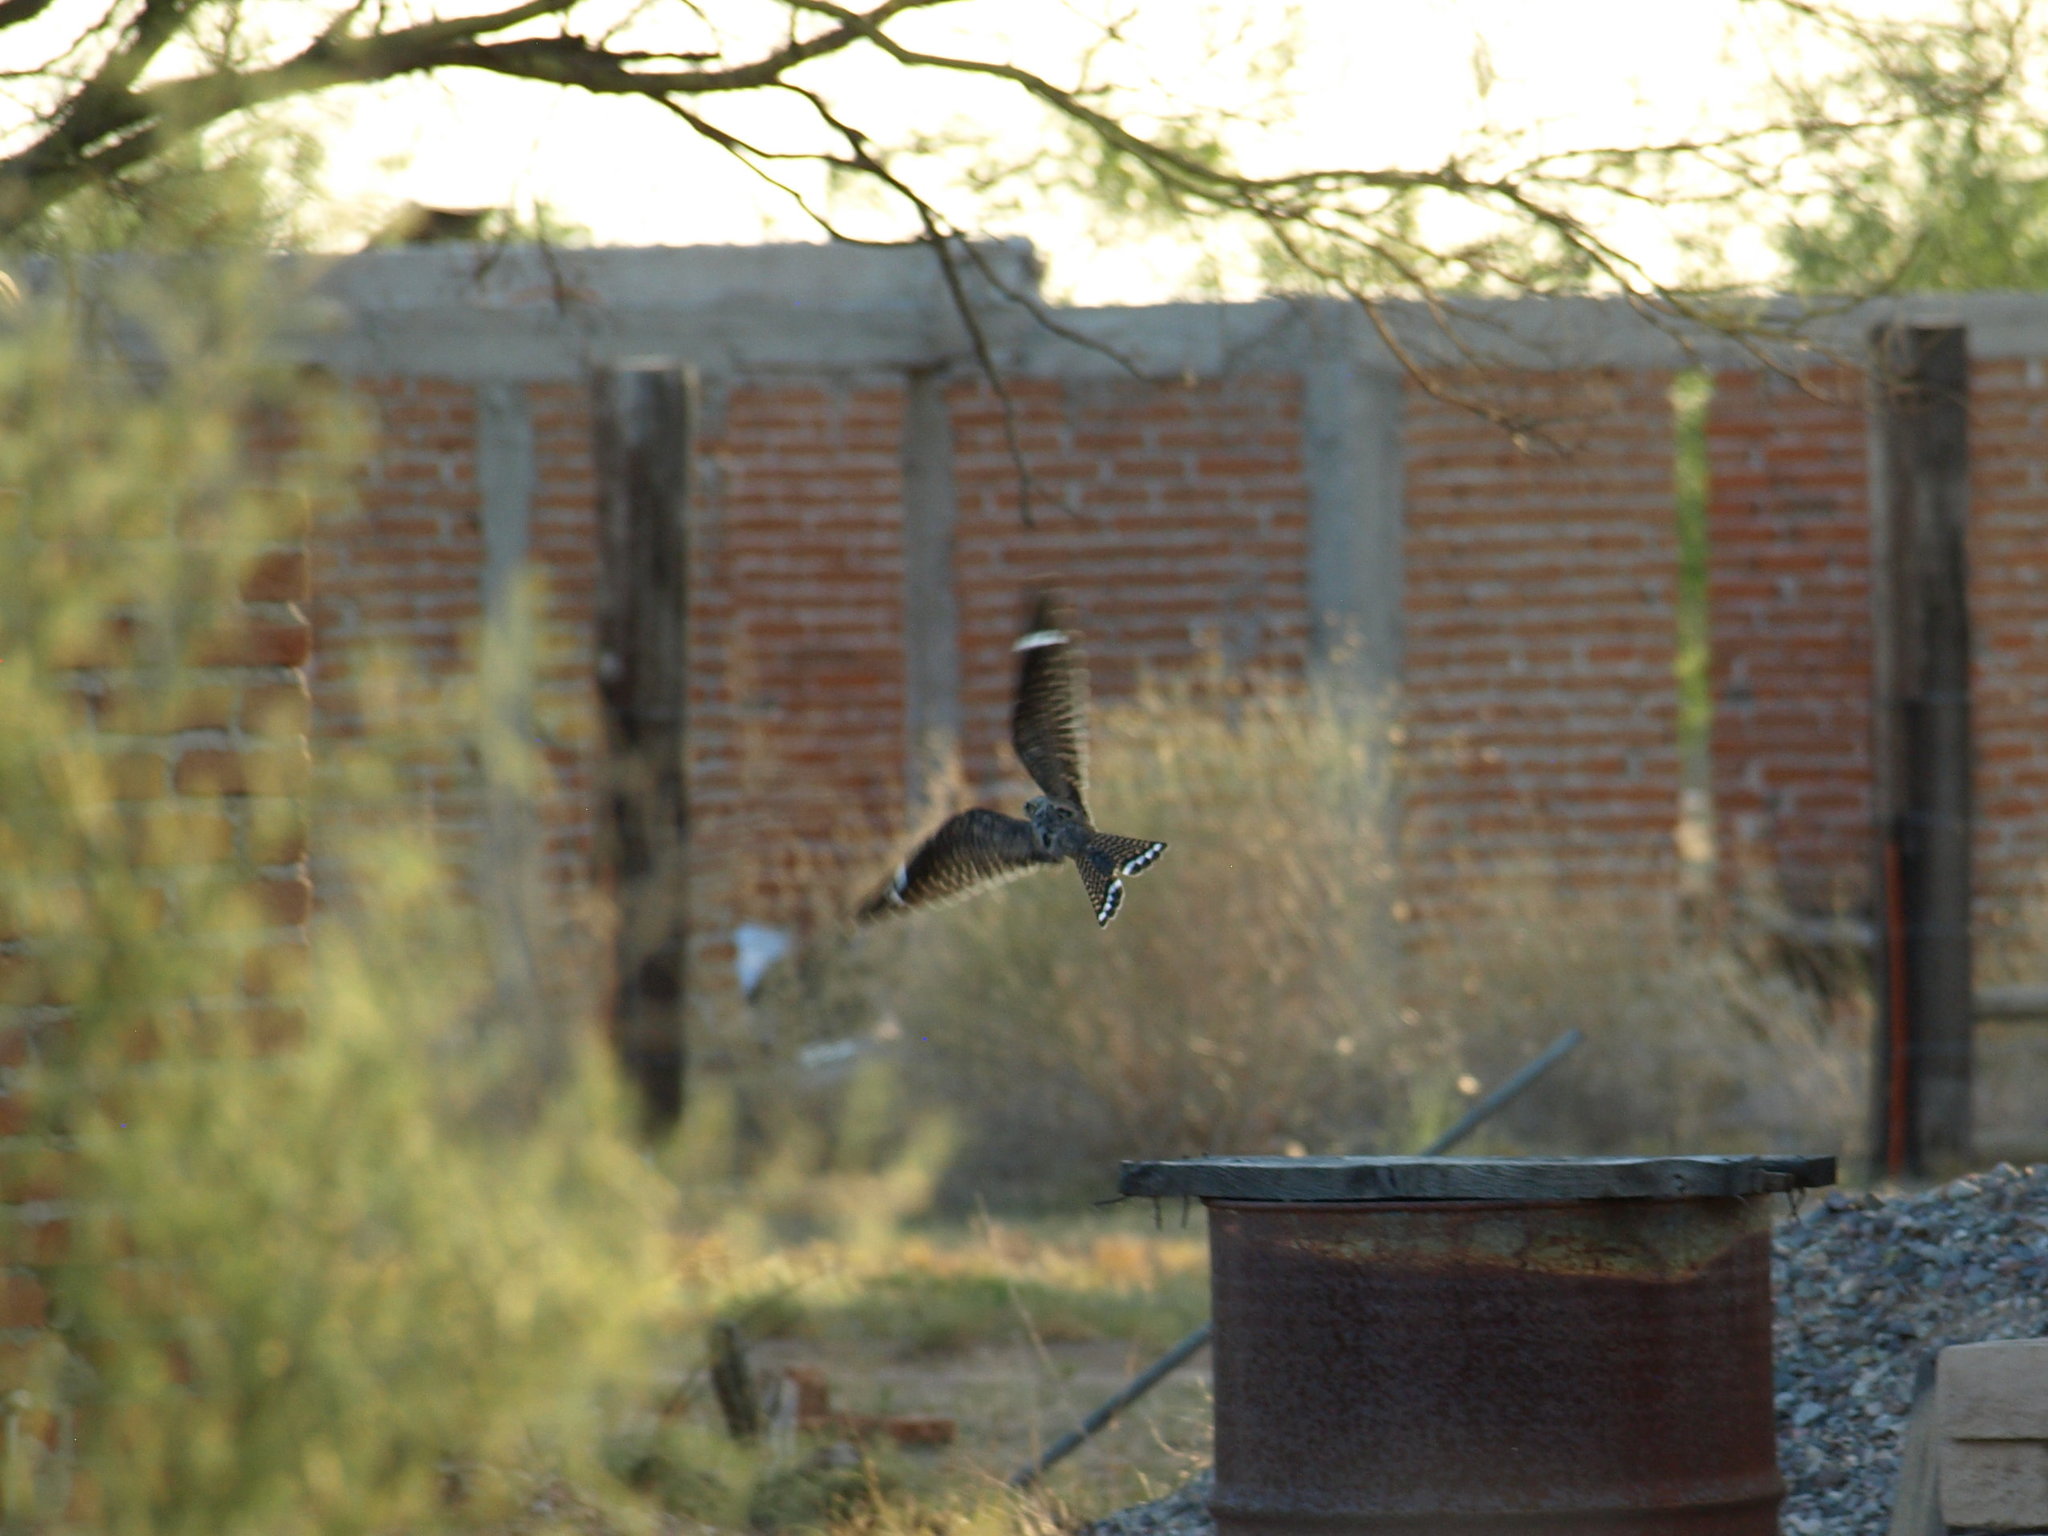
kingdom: Animalia
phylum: Chordata
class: Aves
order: Caprimulgiformes
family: Caprimulgidae
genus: Chordeiles
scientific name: Chordeiles acutipennis
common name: Lesser nighthawk
